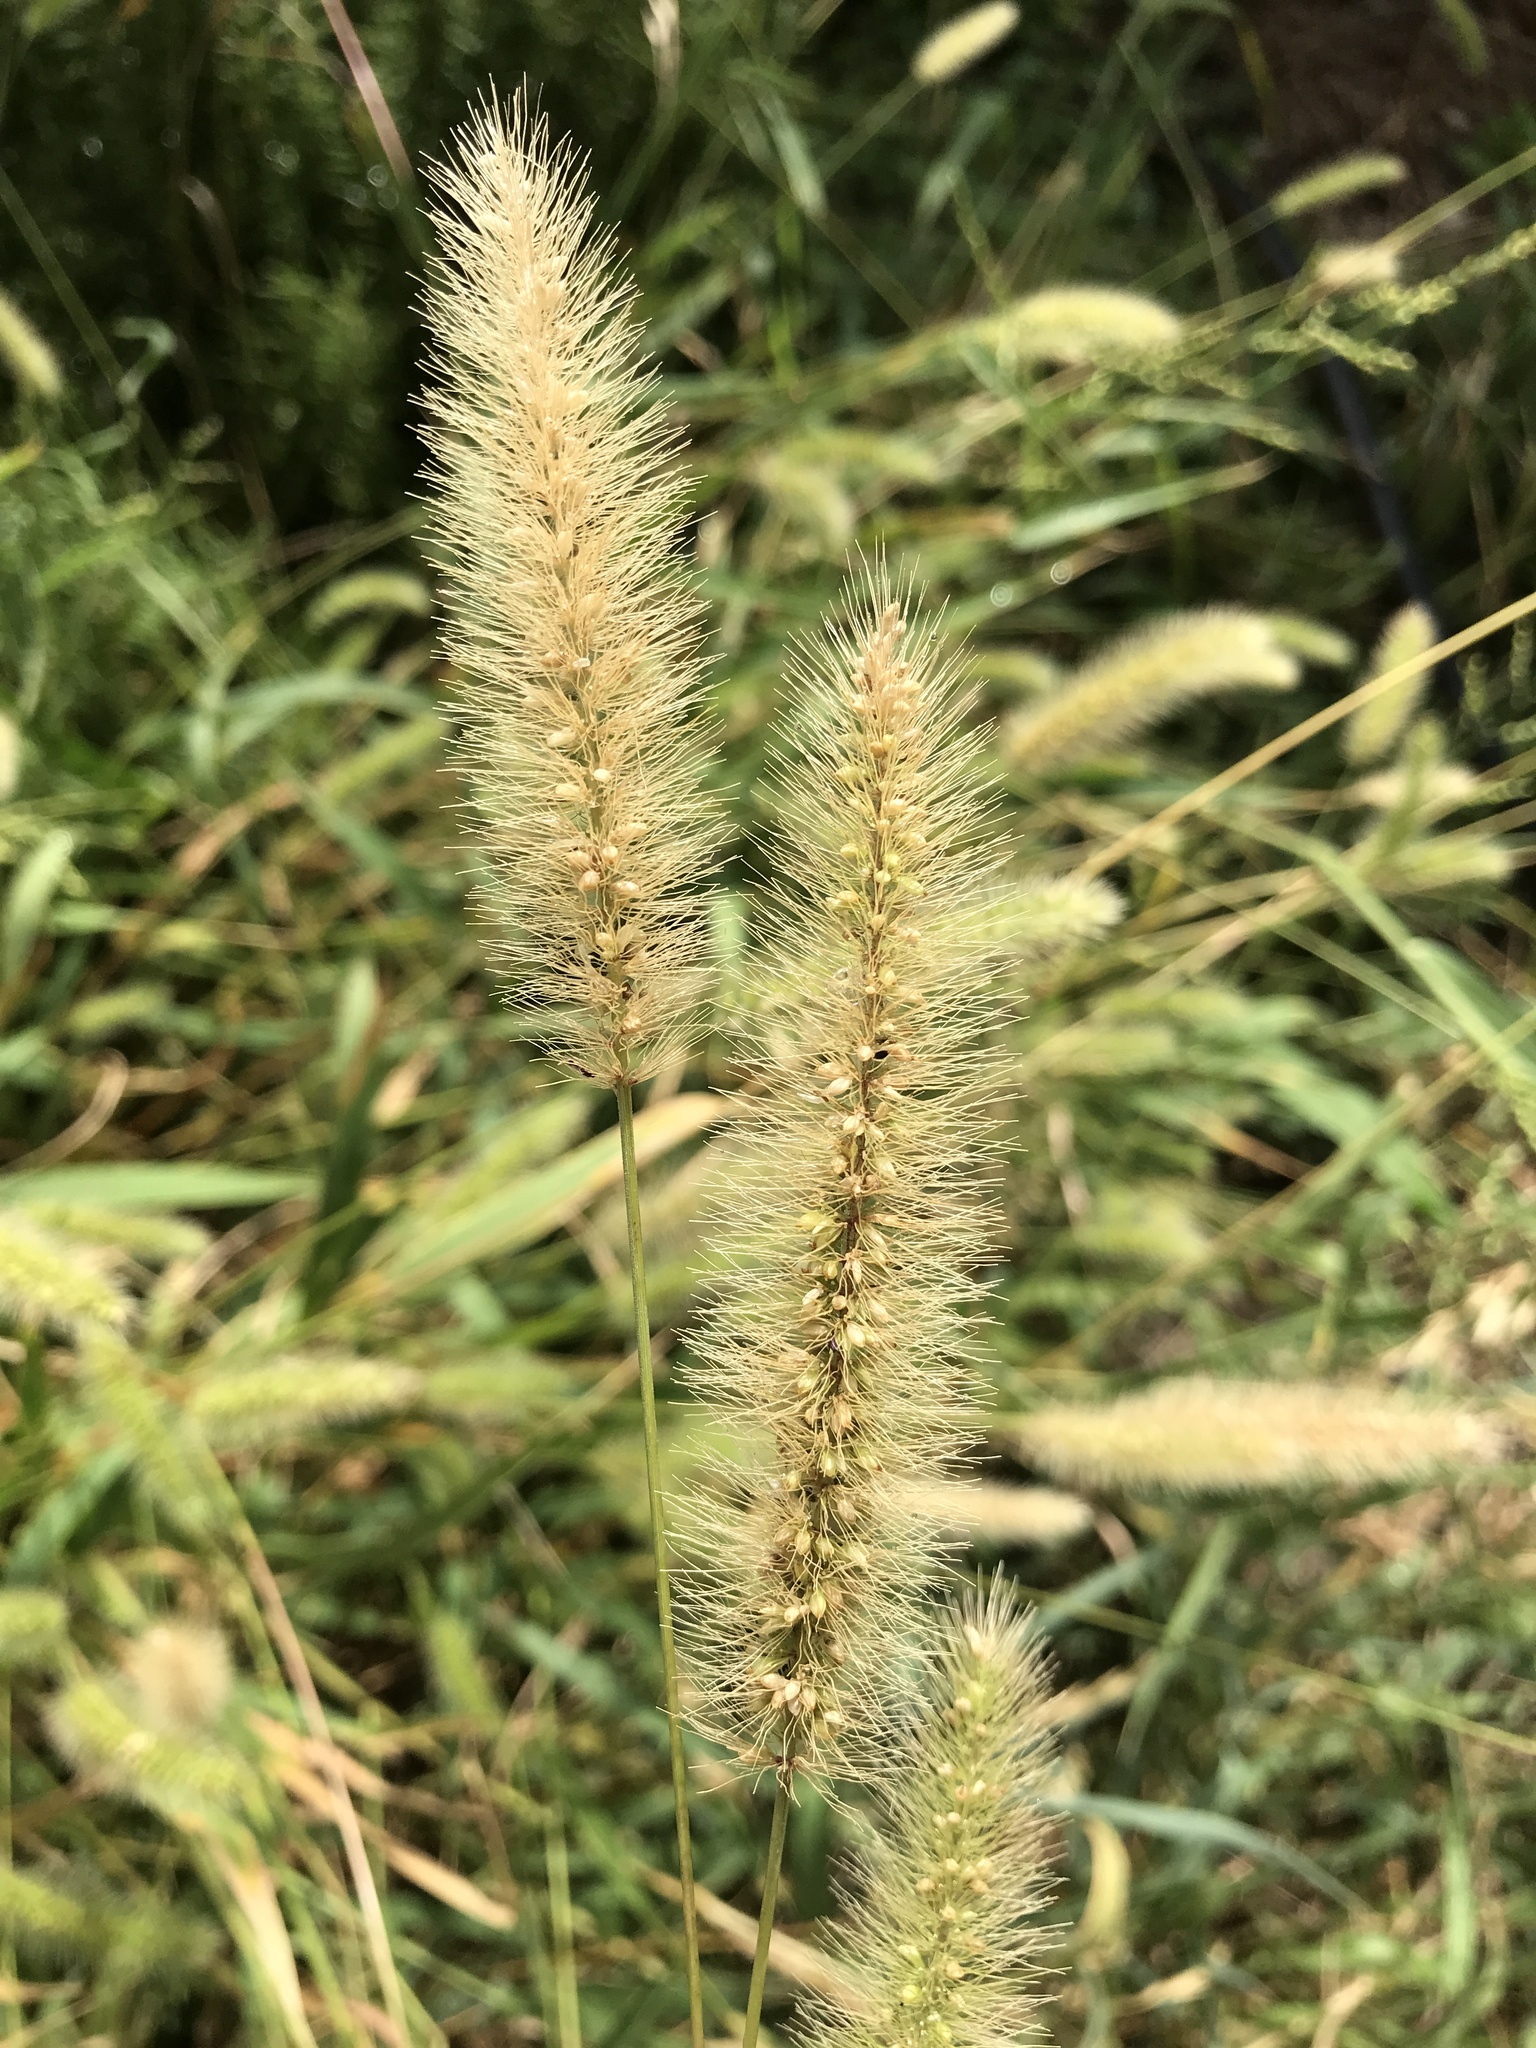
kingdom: Plantae
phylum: Tracheophyta
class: Liliopsida
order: Poales
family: Poaceae
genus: Setaria
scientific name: Setaria viridis
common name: Green bristlegrass
